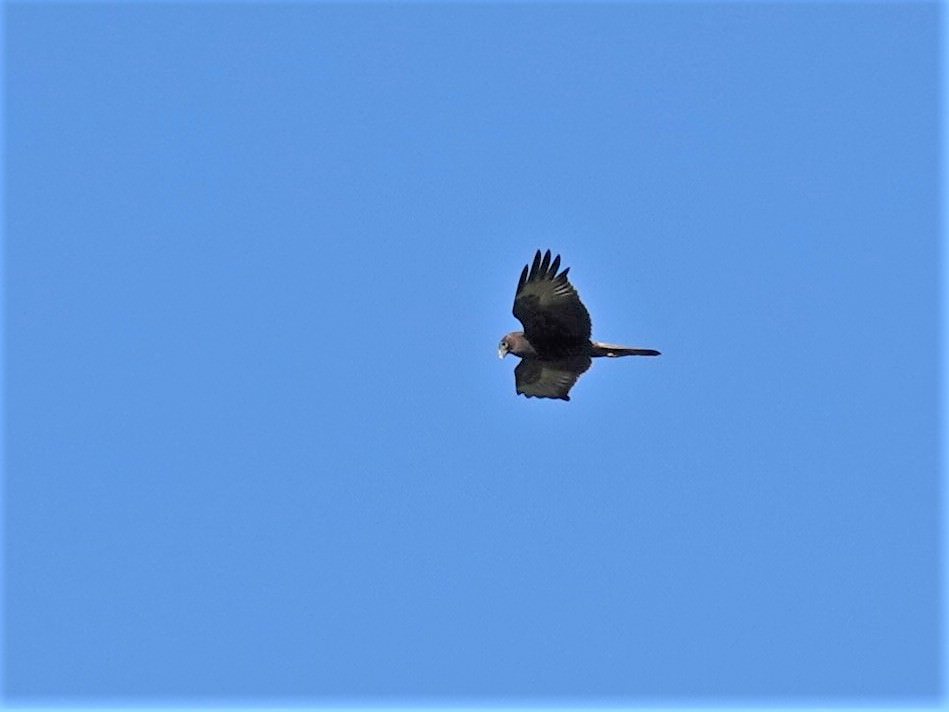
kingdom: Animalia
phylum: Chordata
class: Aves
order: Accipitriformes
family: Accipitridae
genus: Circus
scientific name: Circus approximans
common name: Swamp harrier
